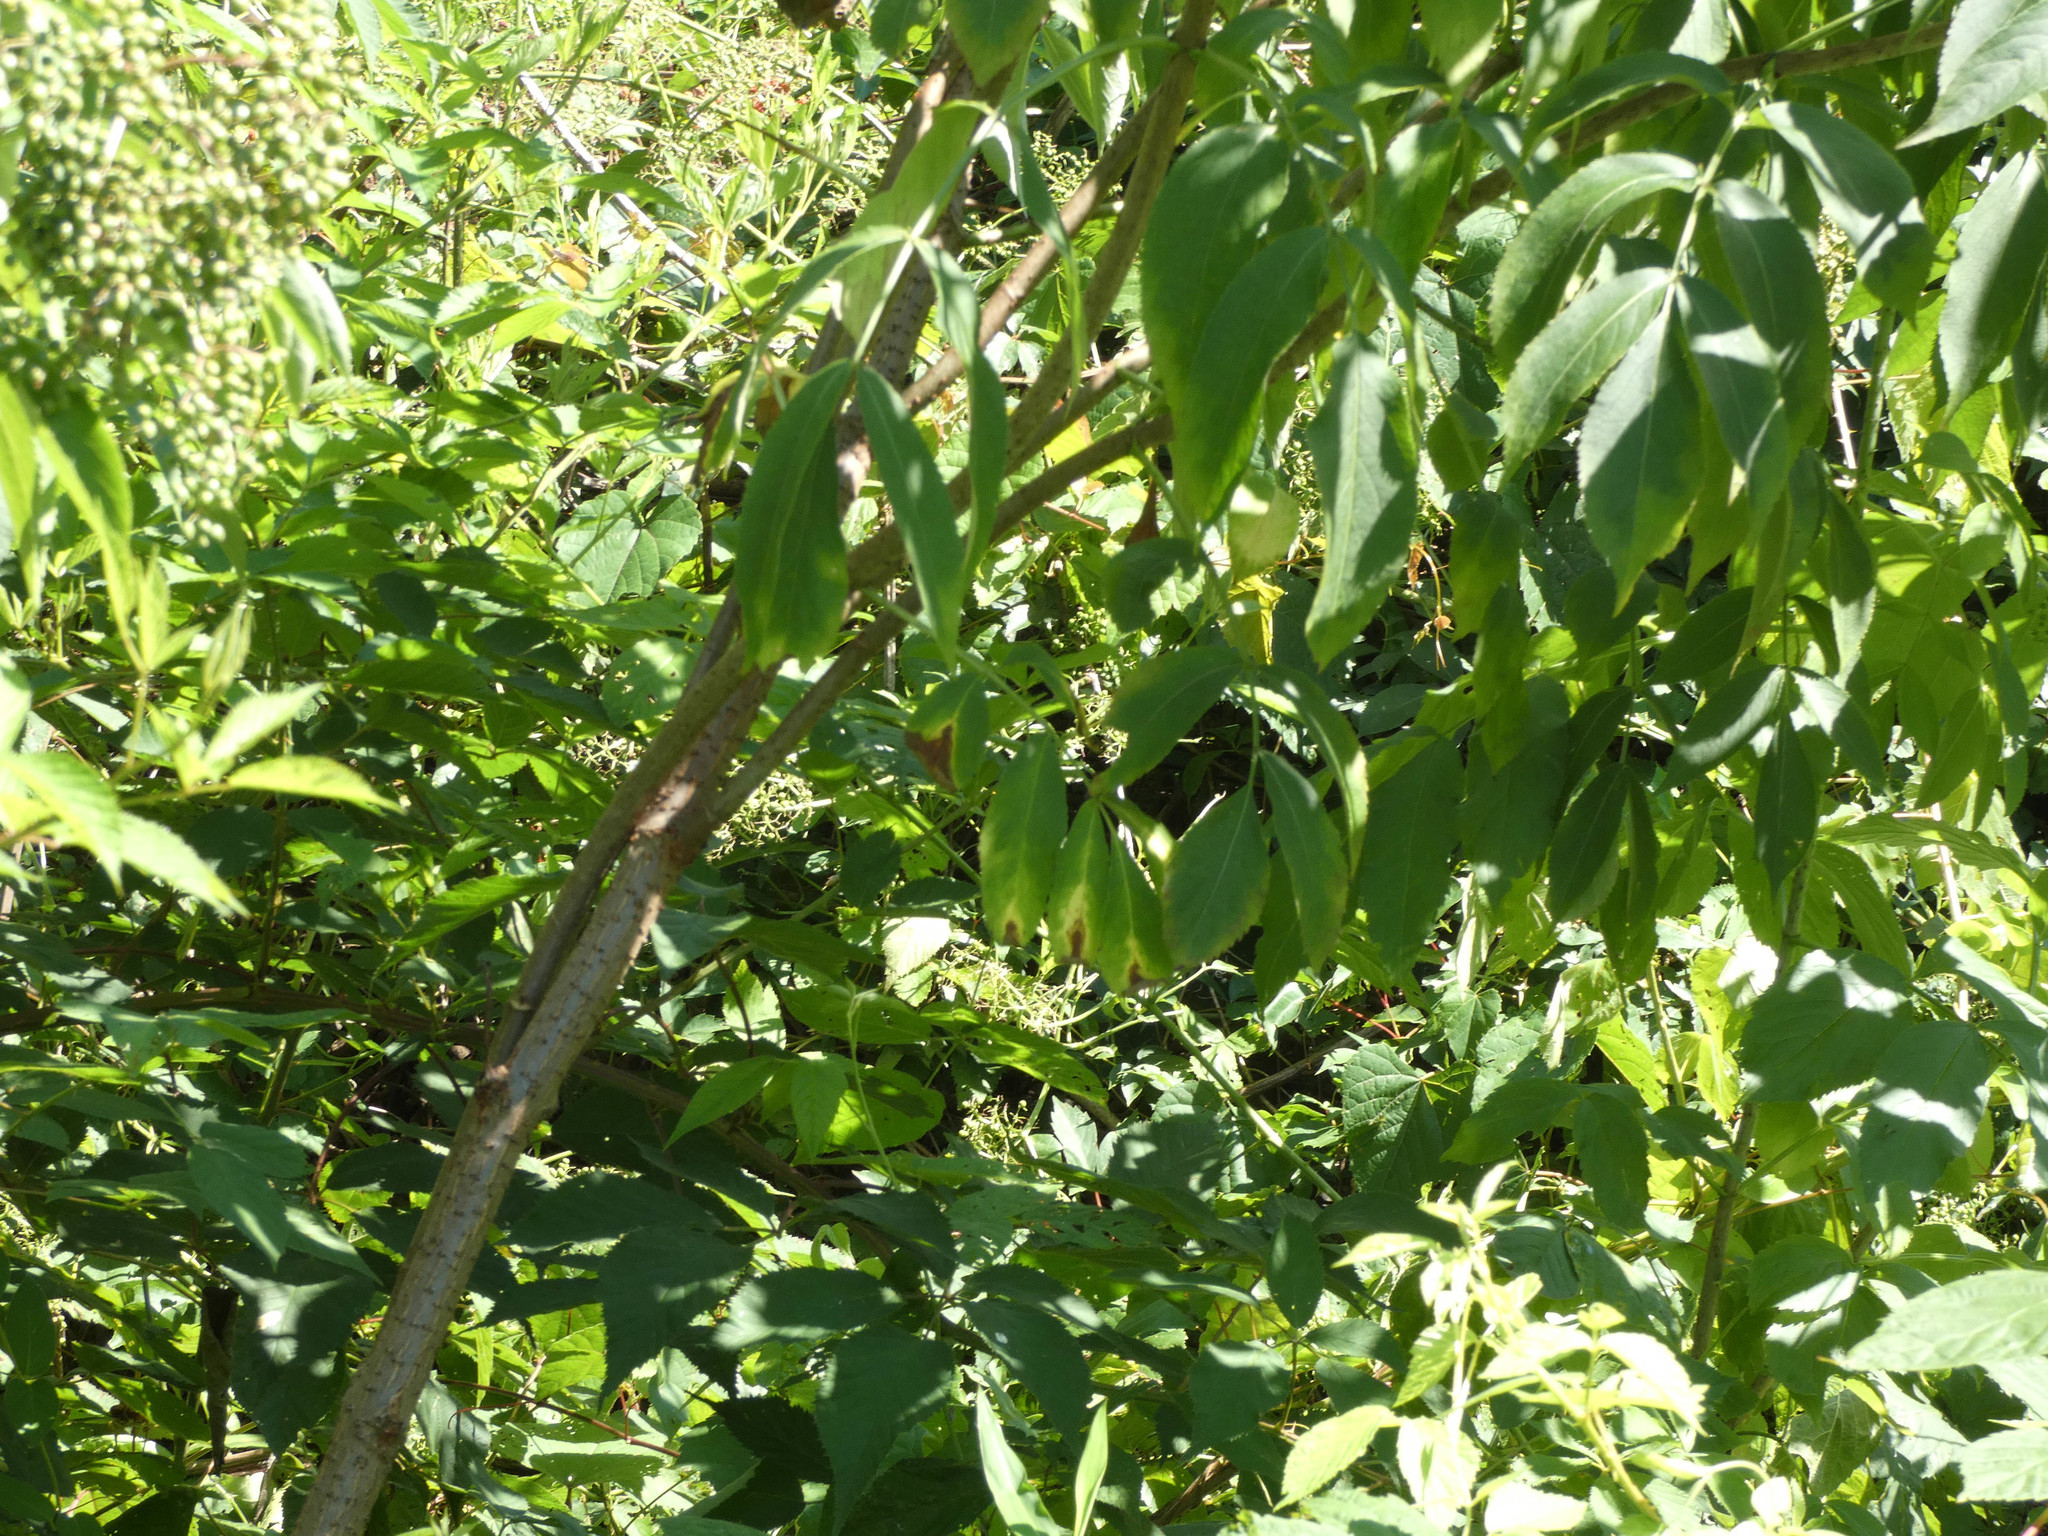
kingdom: Plantae
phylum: Tracheophyta
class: Magnoliopsida
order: Dipsacales
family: Viburnaceae
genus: Sambucus
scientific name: Sambucus canadensis
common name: American elder
